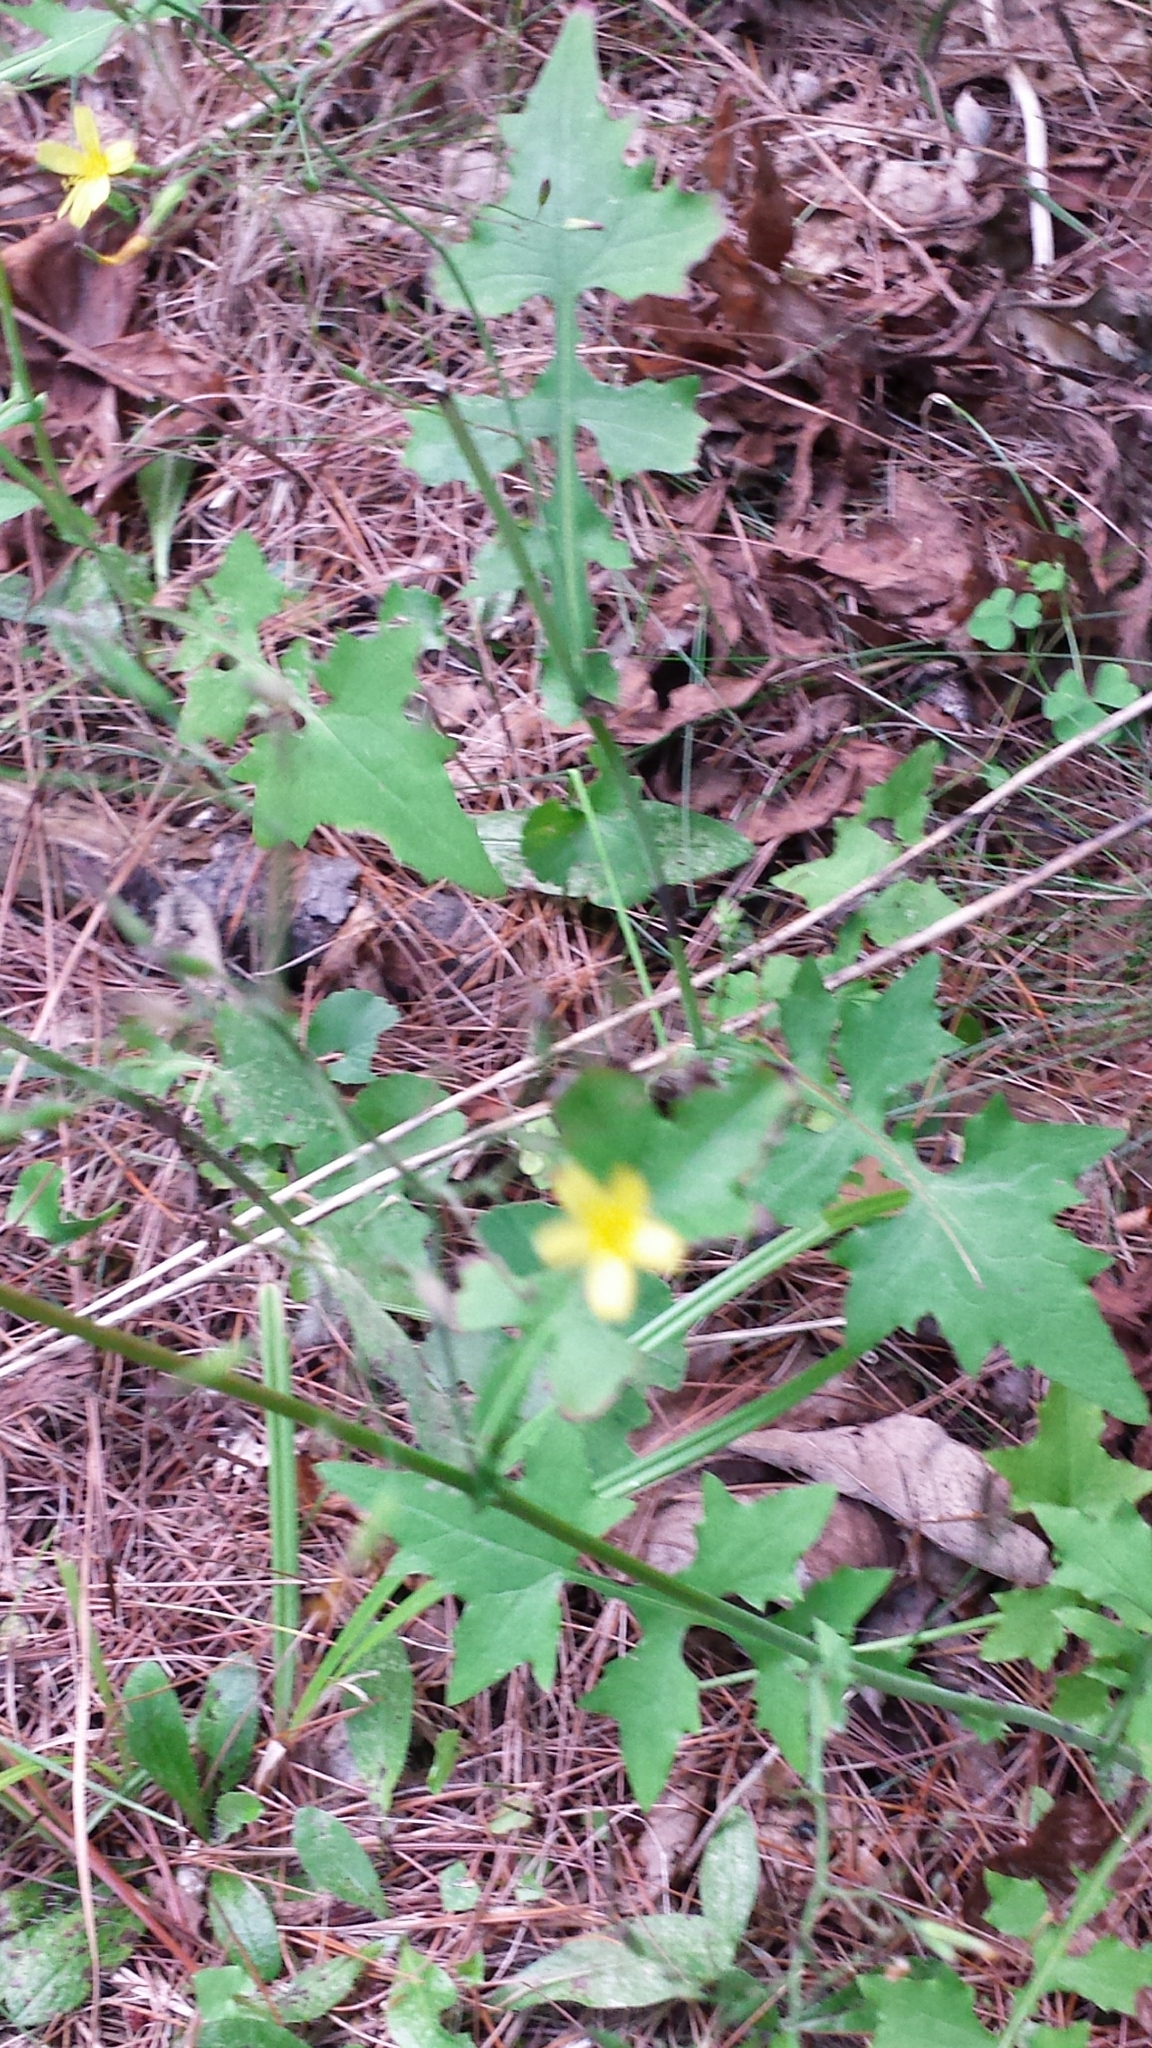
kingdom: Plantae
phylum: Tracheophyta
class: Magnoliopsida
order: Asterales
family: Asteraceae
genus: Mycelis
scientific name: Mycelis muralis
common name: Wall lettuce
